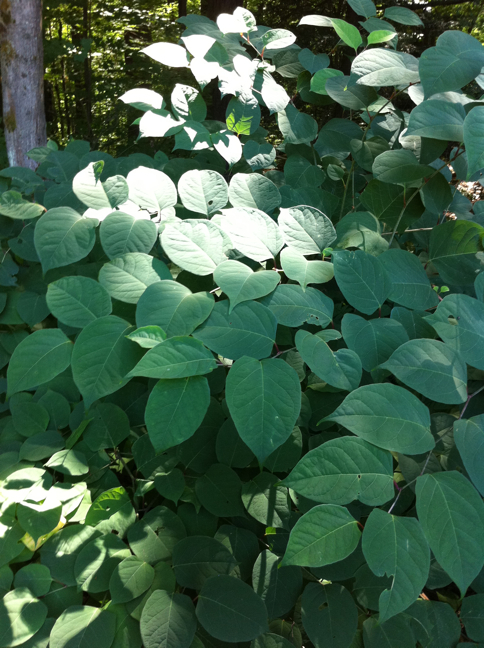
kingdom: Plantae
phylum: Tracheophyta
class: Magnoliopsida
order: Caryophyllales
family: Polygonaceae
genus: Reynoutria
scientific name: Reynoutria japonica
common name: Japanese knotweed
